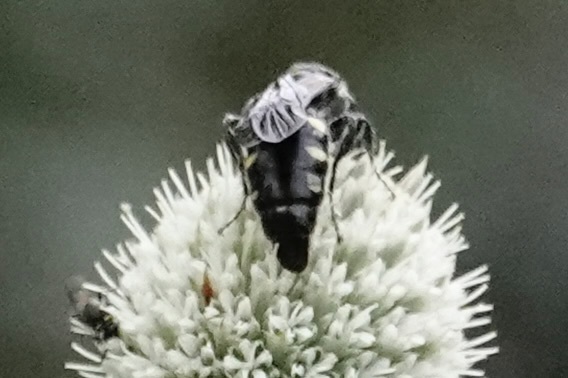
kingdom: Animalia
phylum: Arthropoda
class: Insecta
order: Hymenoptera
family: Tiphiidae
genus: Myzinum
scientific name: Myzinum obscurum
